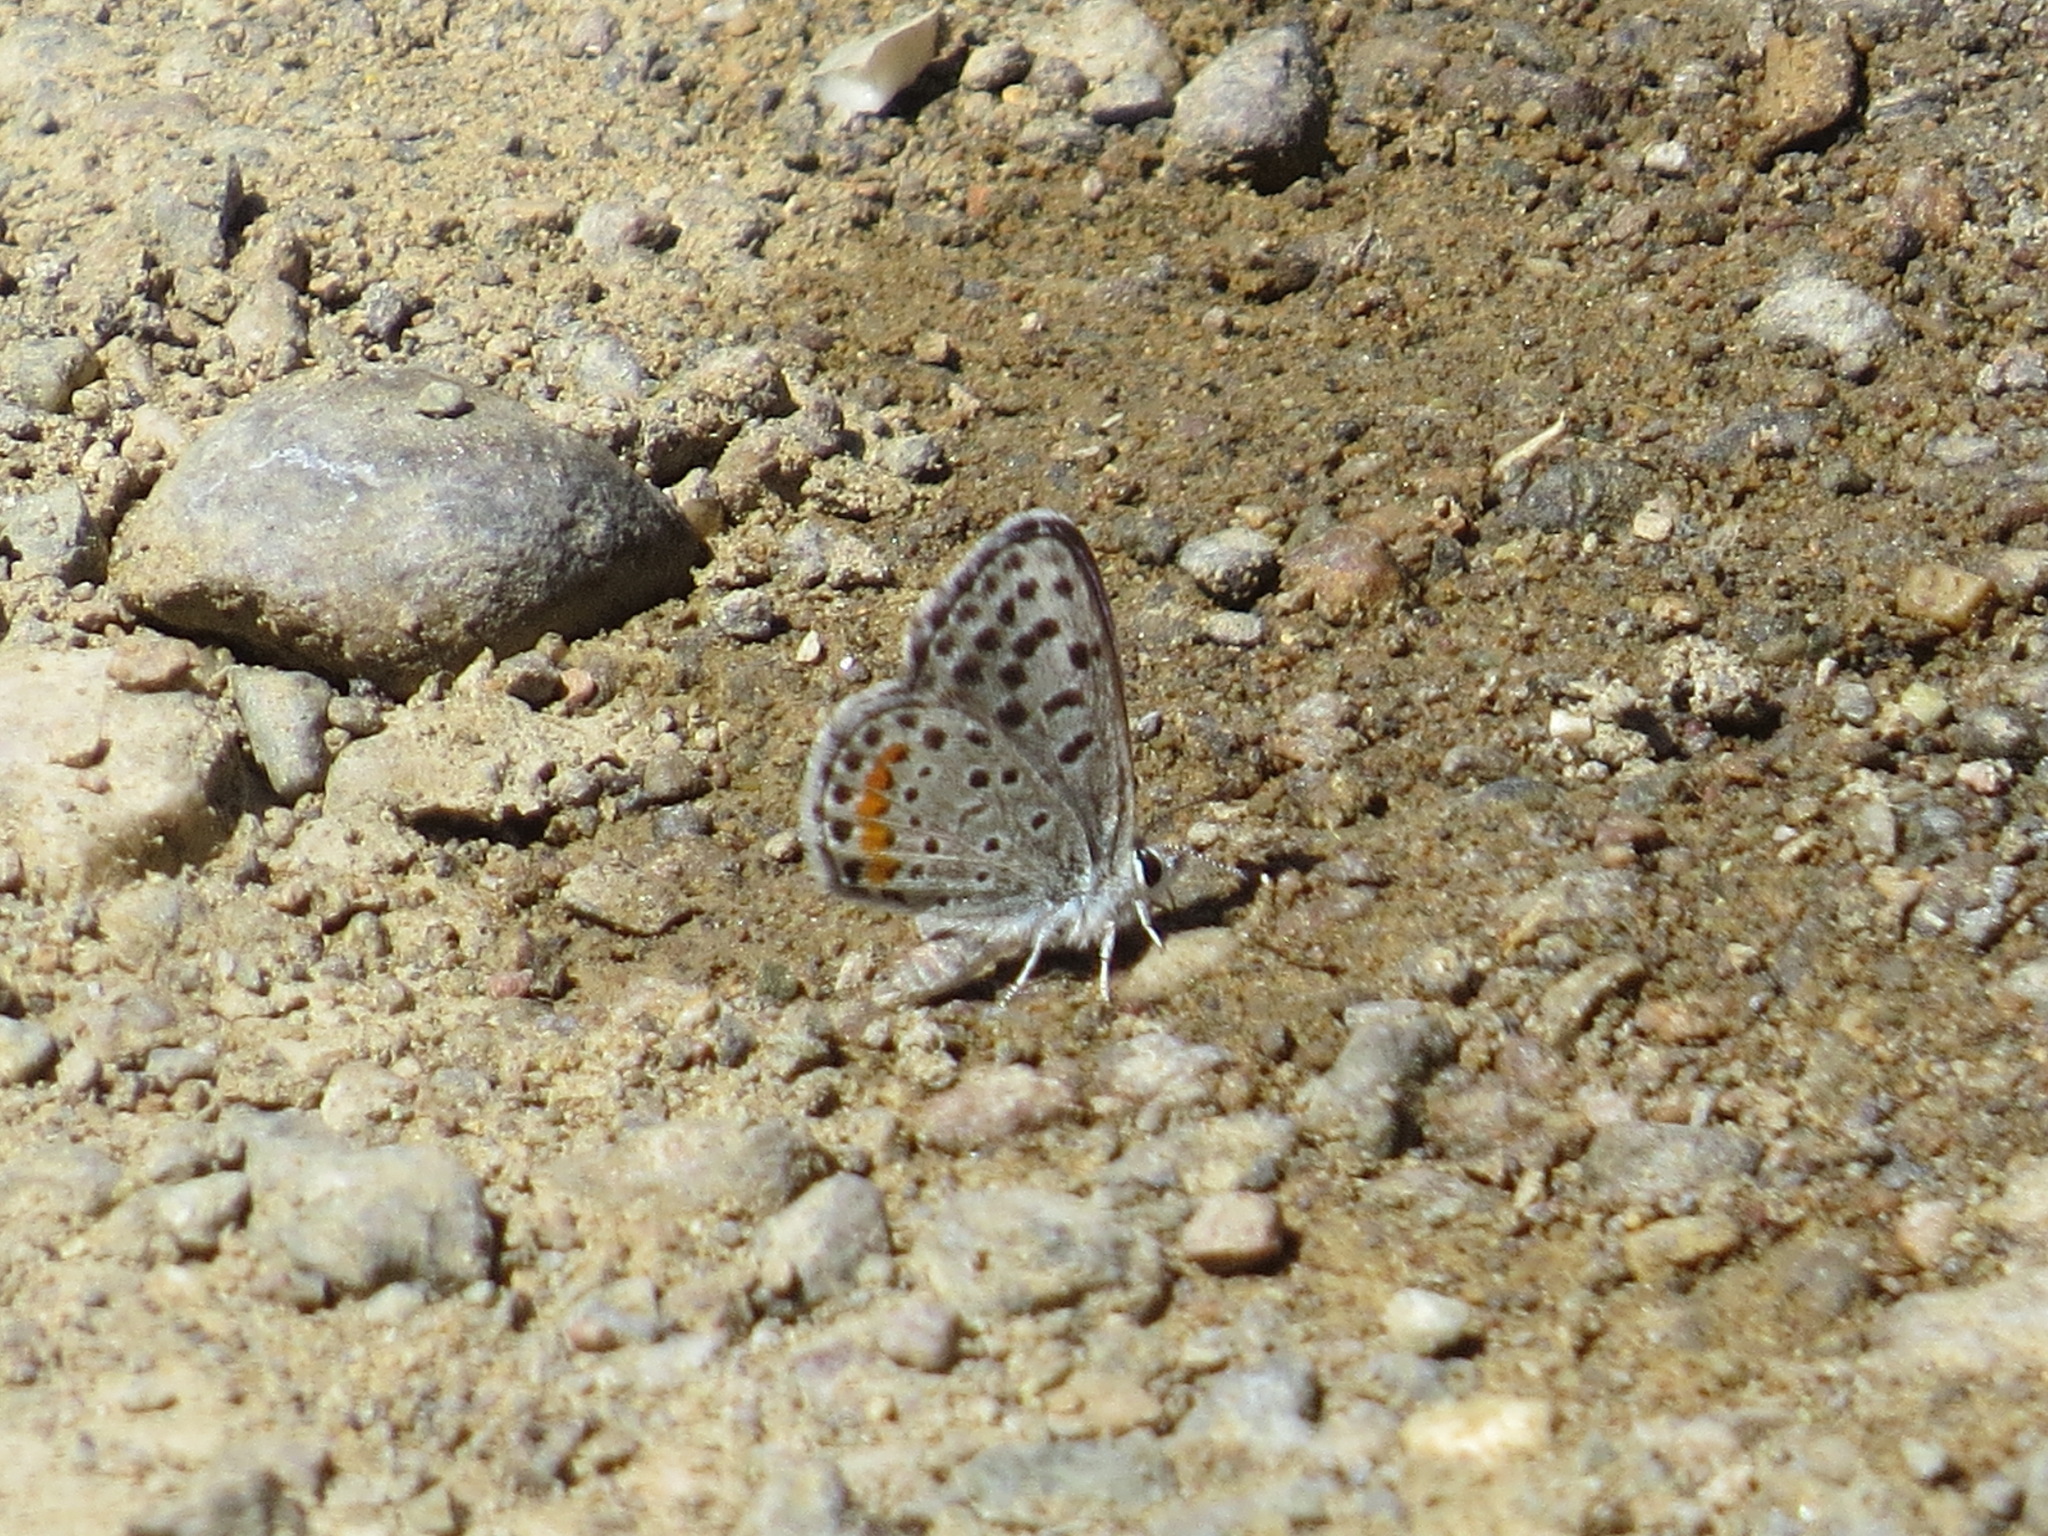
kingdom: Animalia
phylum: Arthropoda
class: Insecta
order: Lepidoptera
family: Lycaenidae
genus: Euphilotes
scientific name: Euphilotes enoptes
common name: Dotted blue
